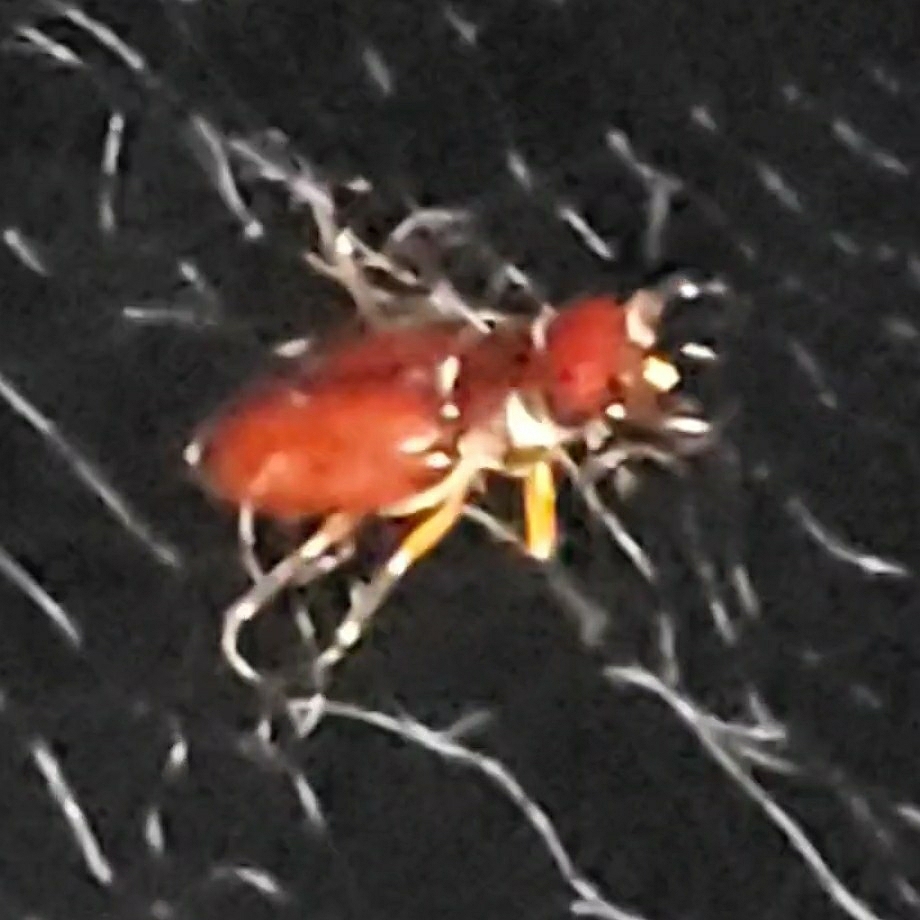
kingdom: Animalia
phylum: Arthropoda
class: Insecta
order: Coleoptera
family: Lucanidae
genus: Lucanus
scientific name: Lucanus capreolus
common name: Stag beetle
